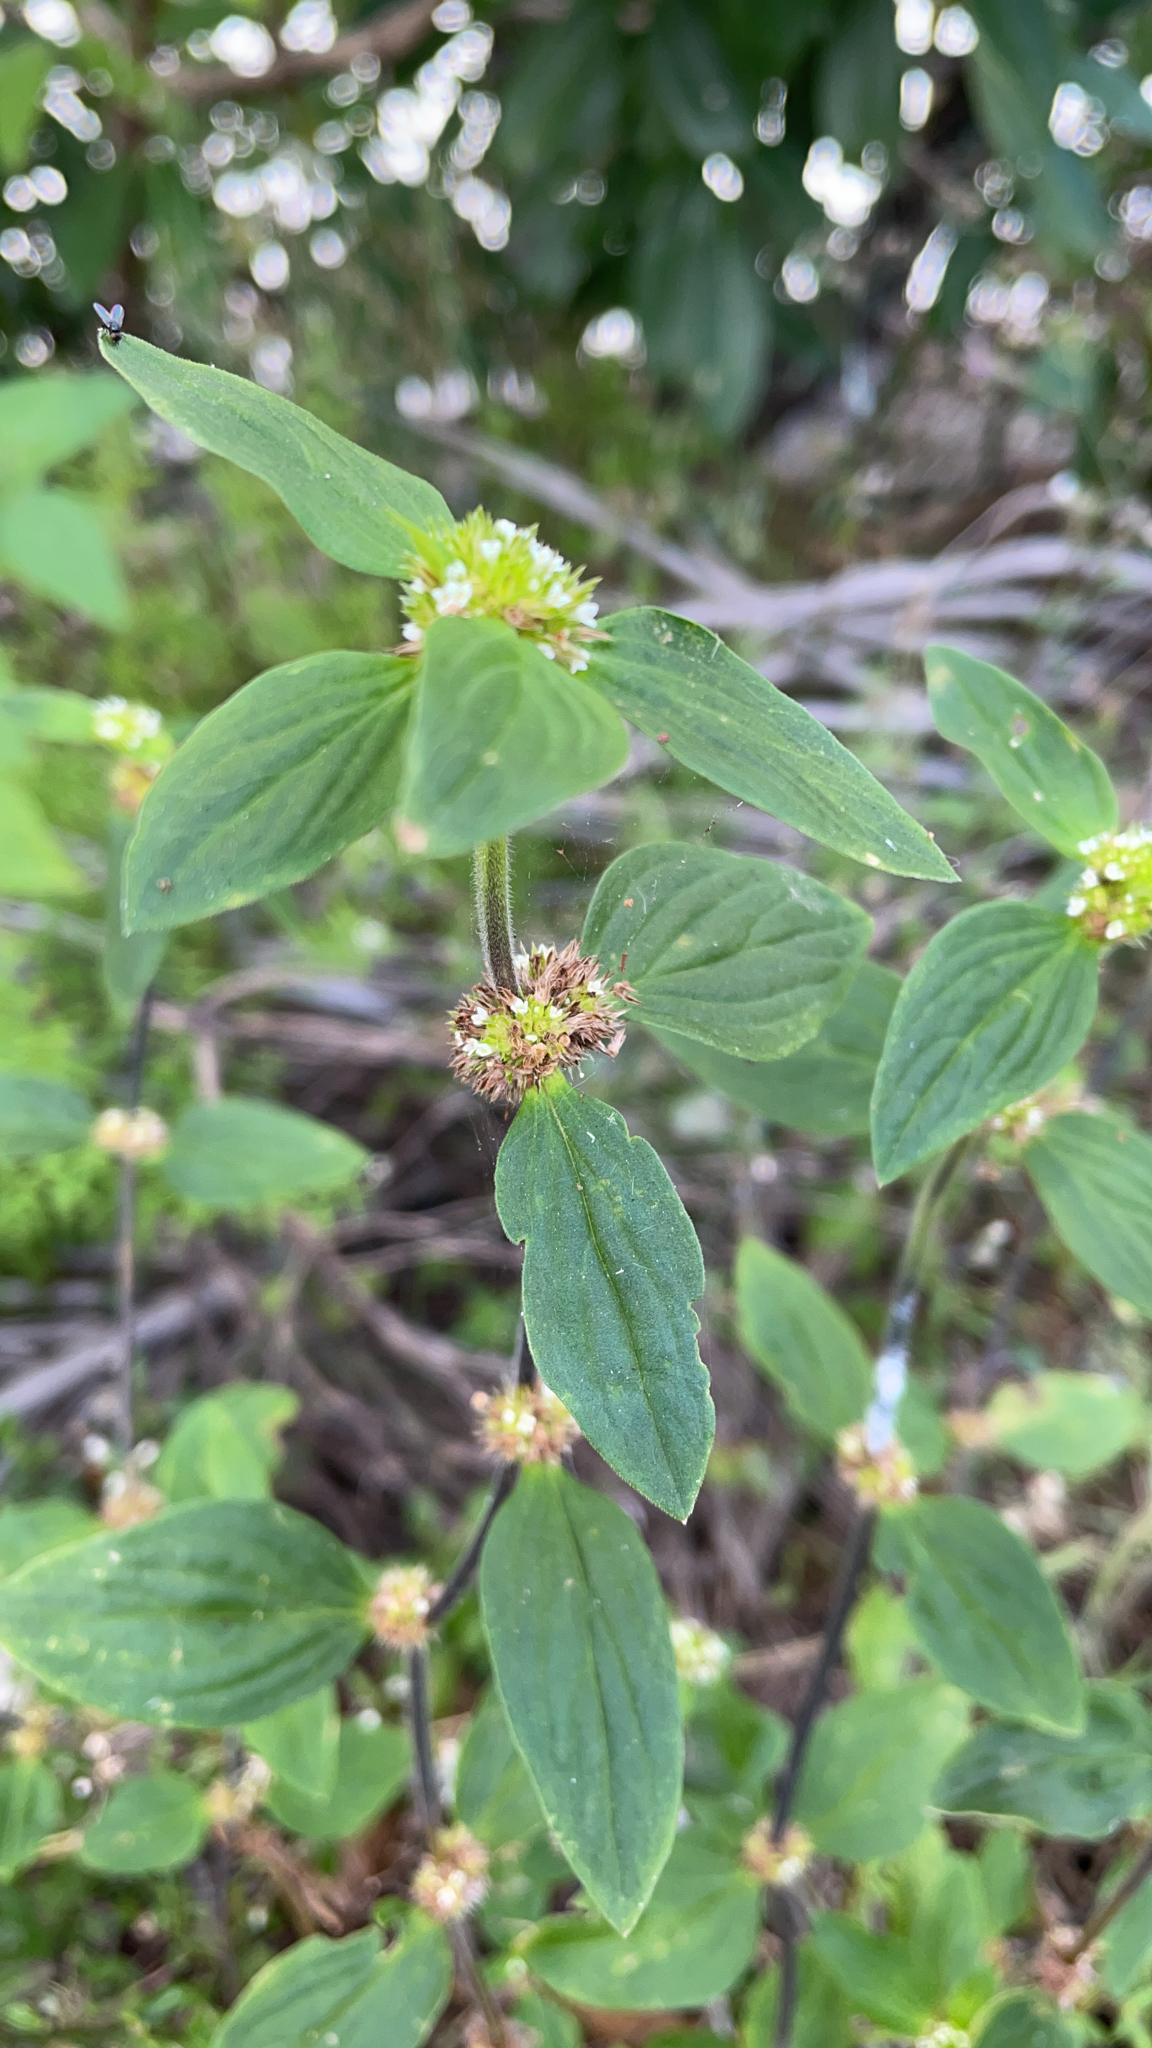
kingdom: Plantae
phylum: Tracheophyta
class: Magnoliopsida
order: Gentianales
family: Rubiaceae
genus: Mitracarpus
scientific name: Mitracarpus hirtus
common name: Tropical girdlepod
